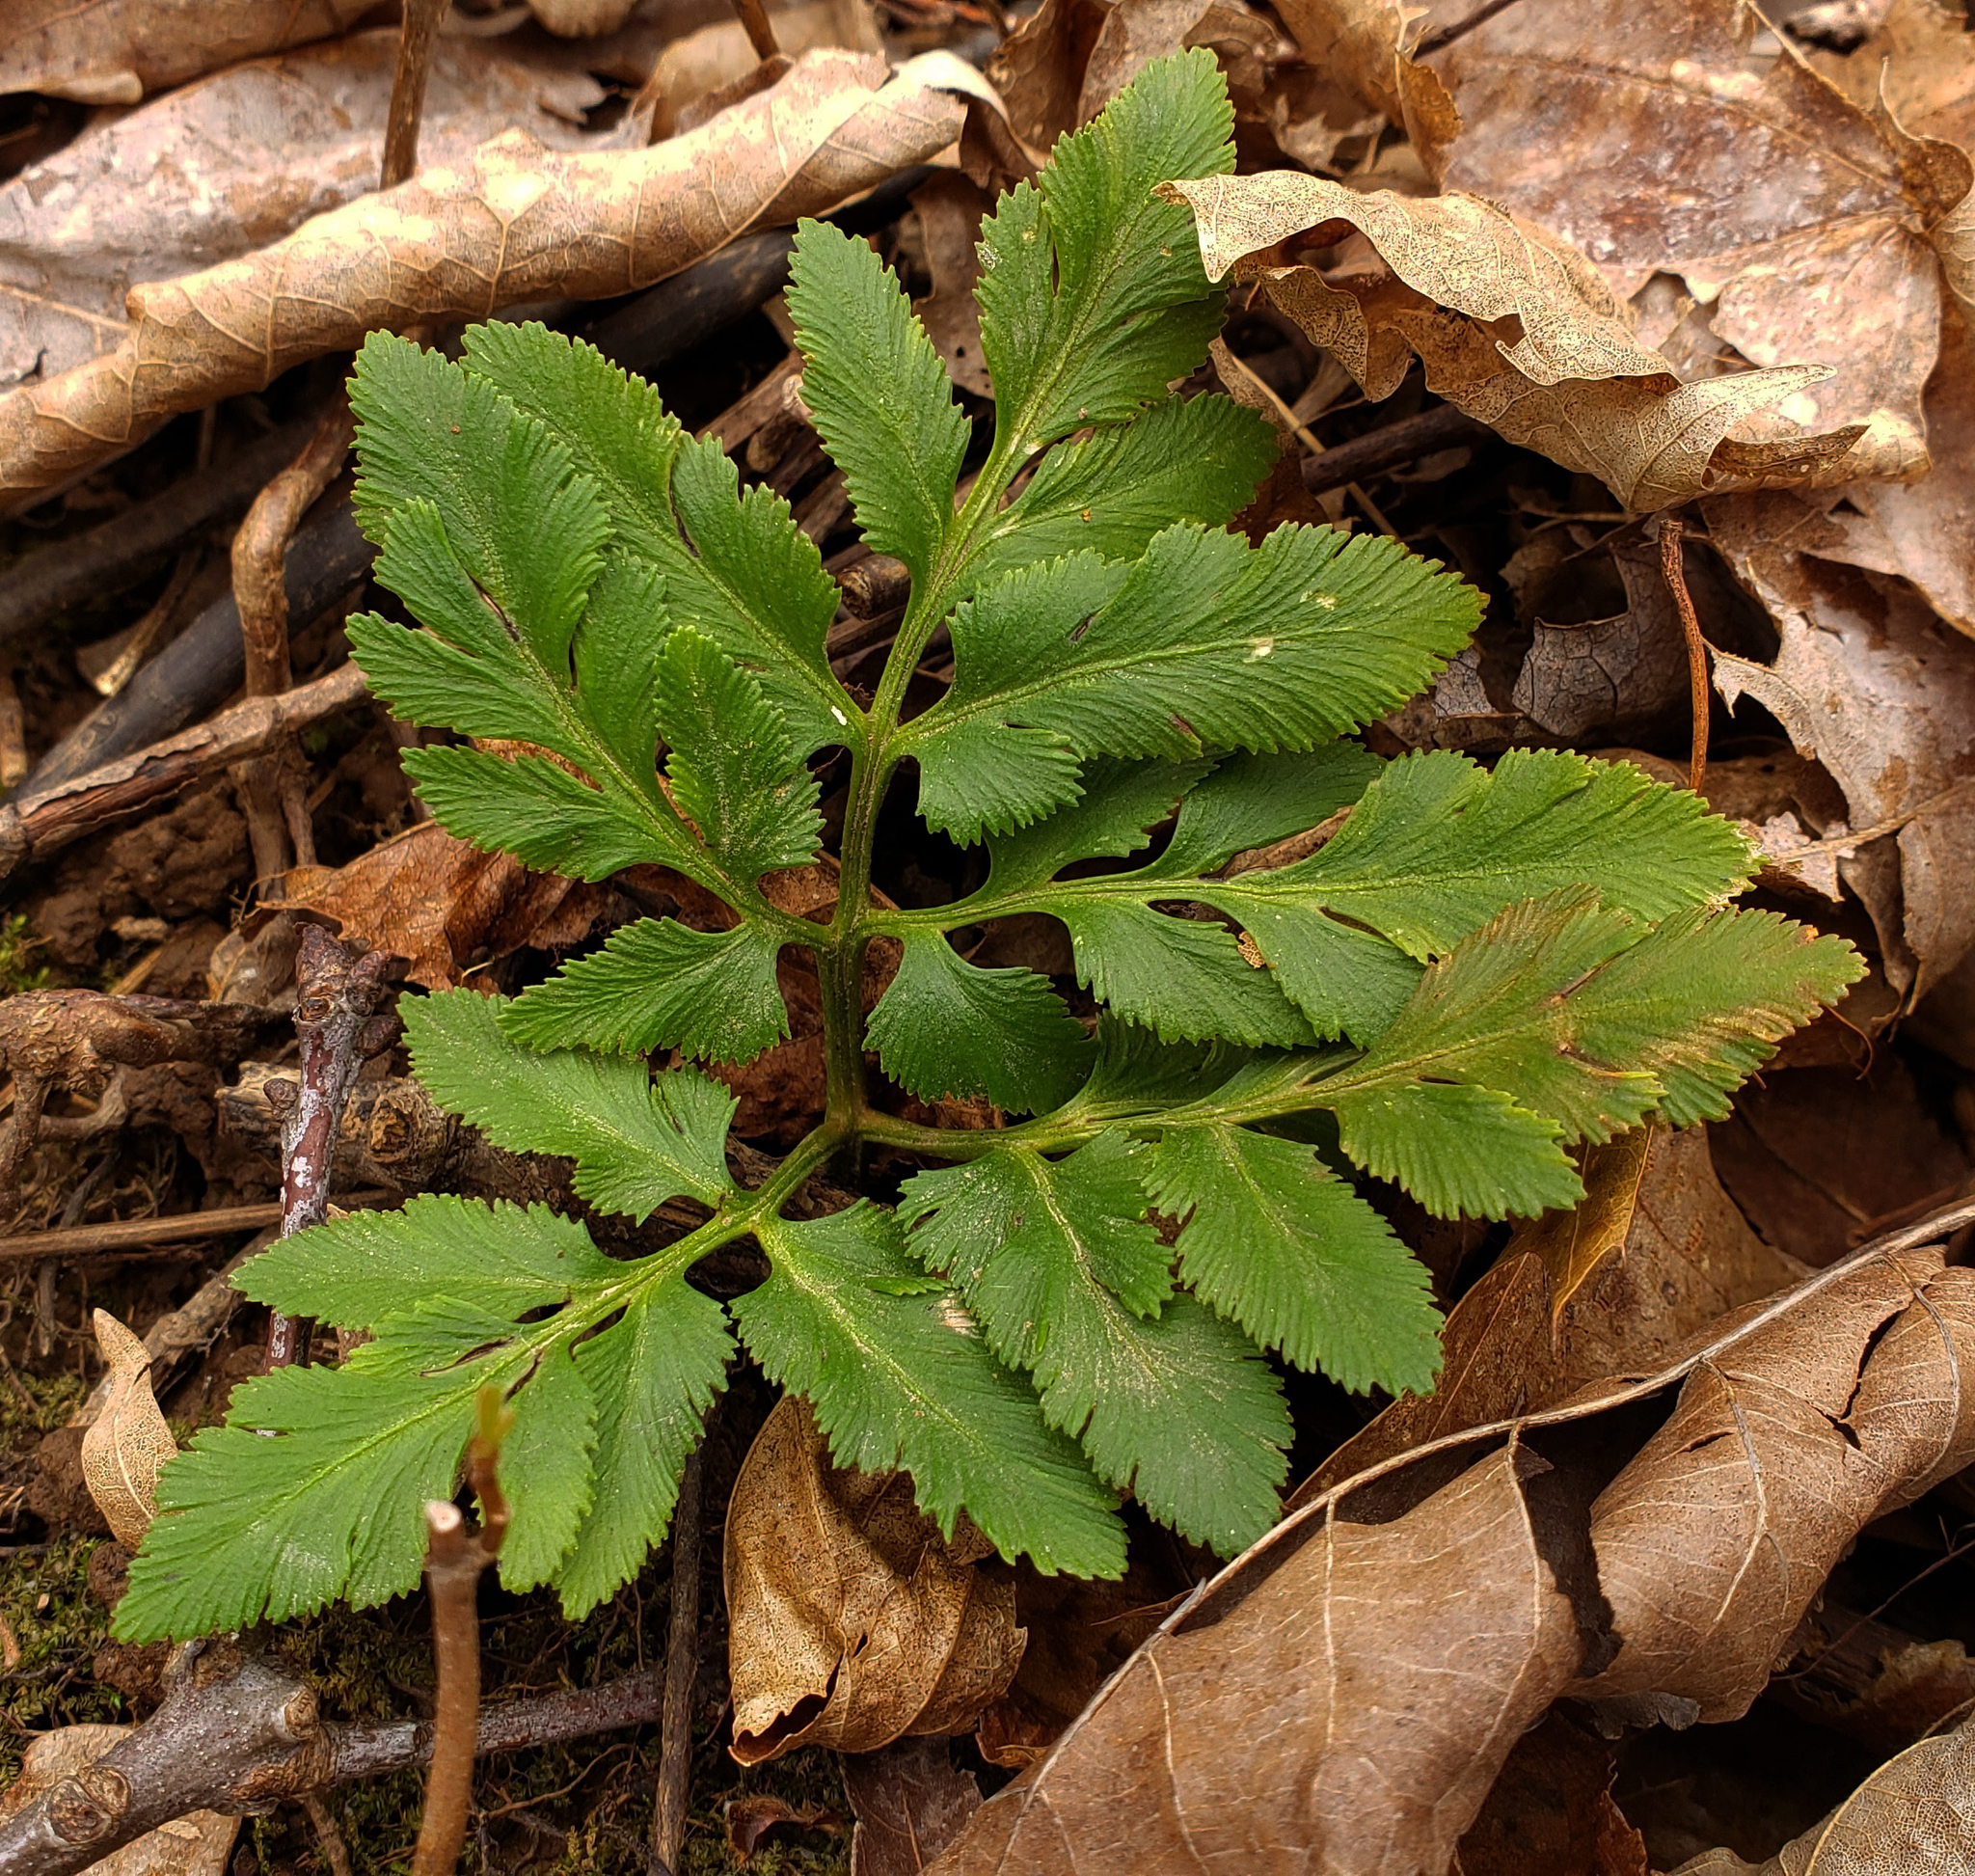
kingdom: Plantae
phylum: Tracheophyta
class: Polypodiopsida
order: Ophioglossales
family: Ophioglossaceae
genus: Sceptridium
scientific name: Sceptridium dissectum
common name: Cut-leaved grapefern
